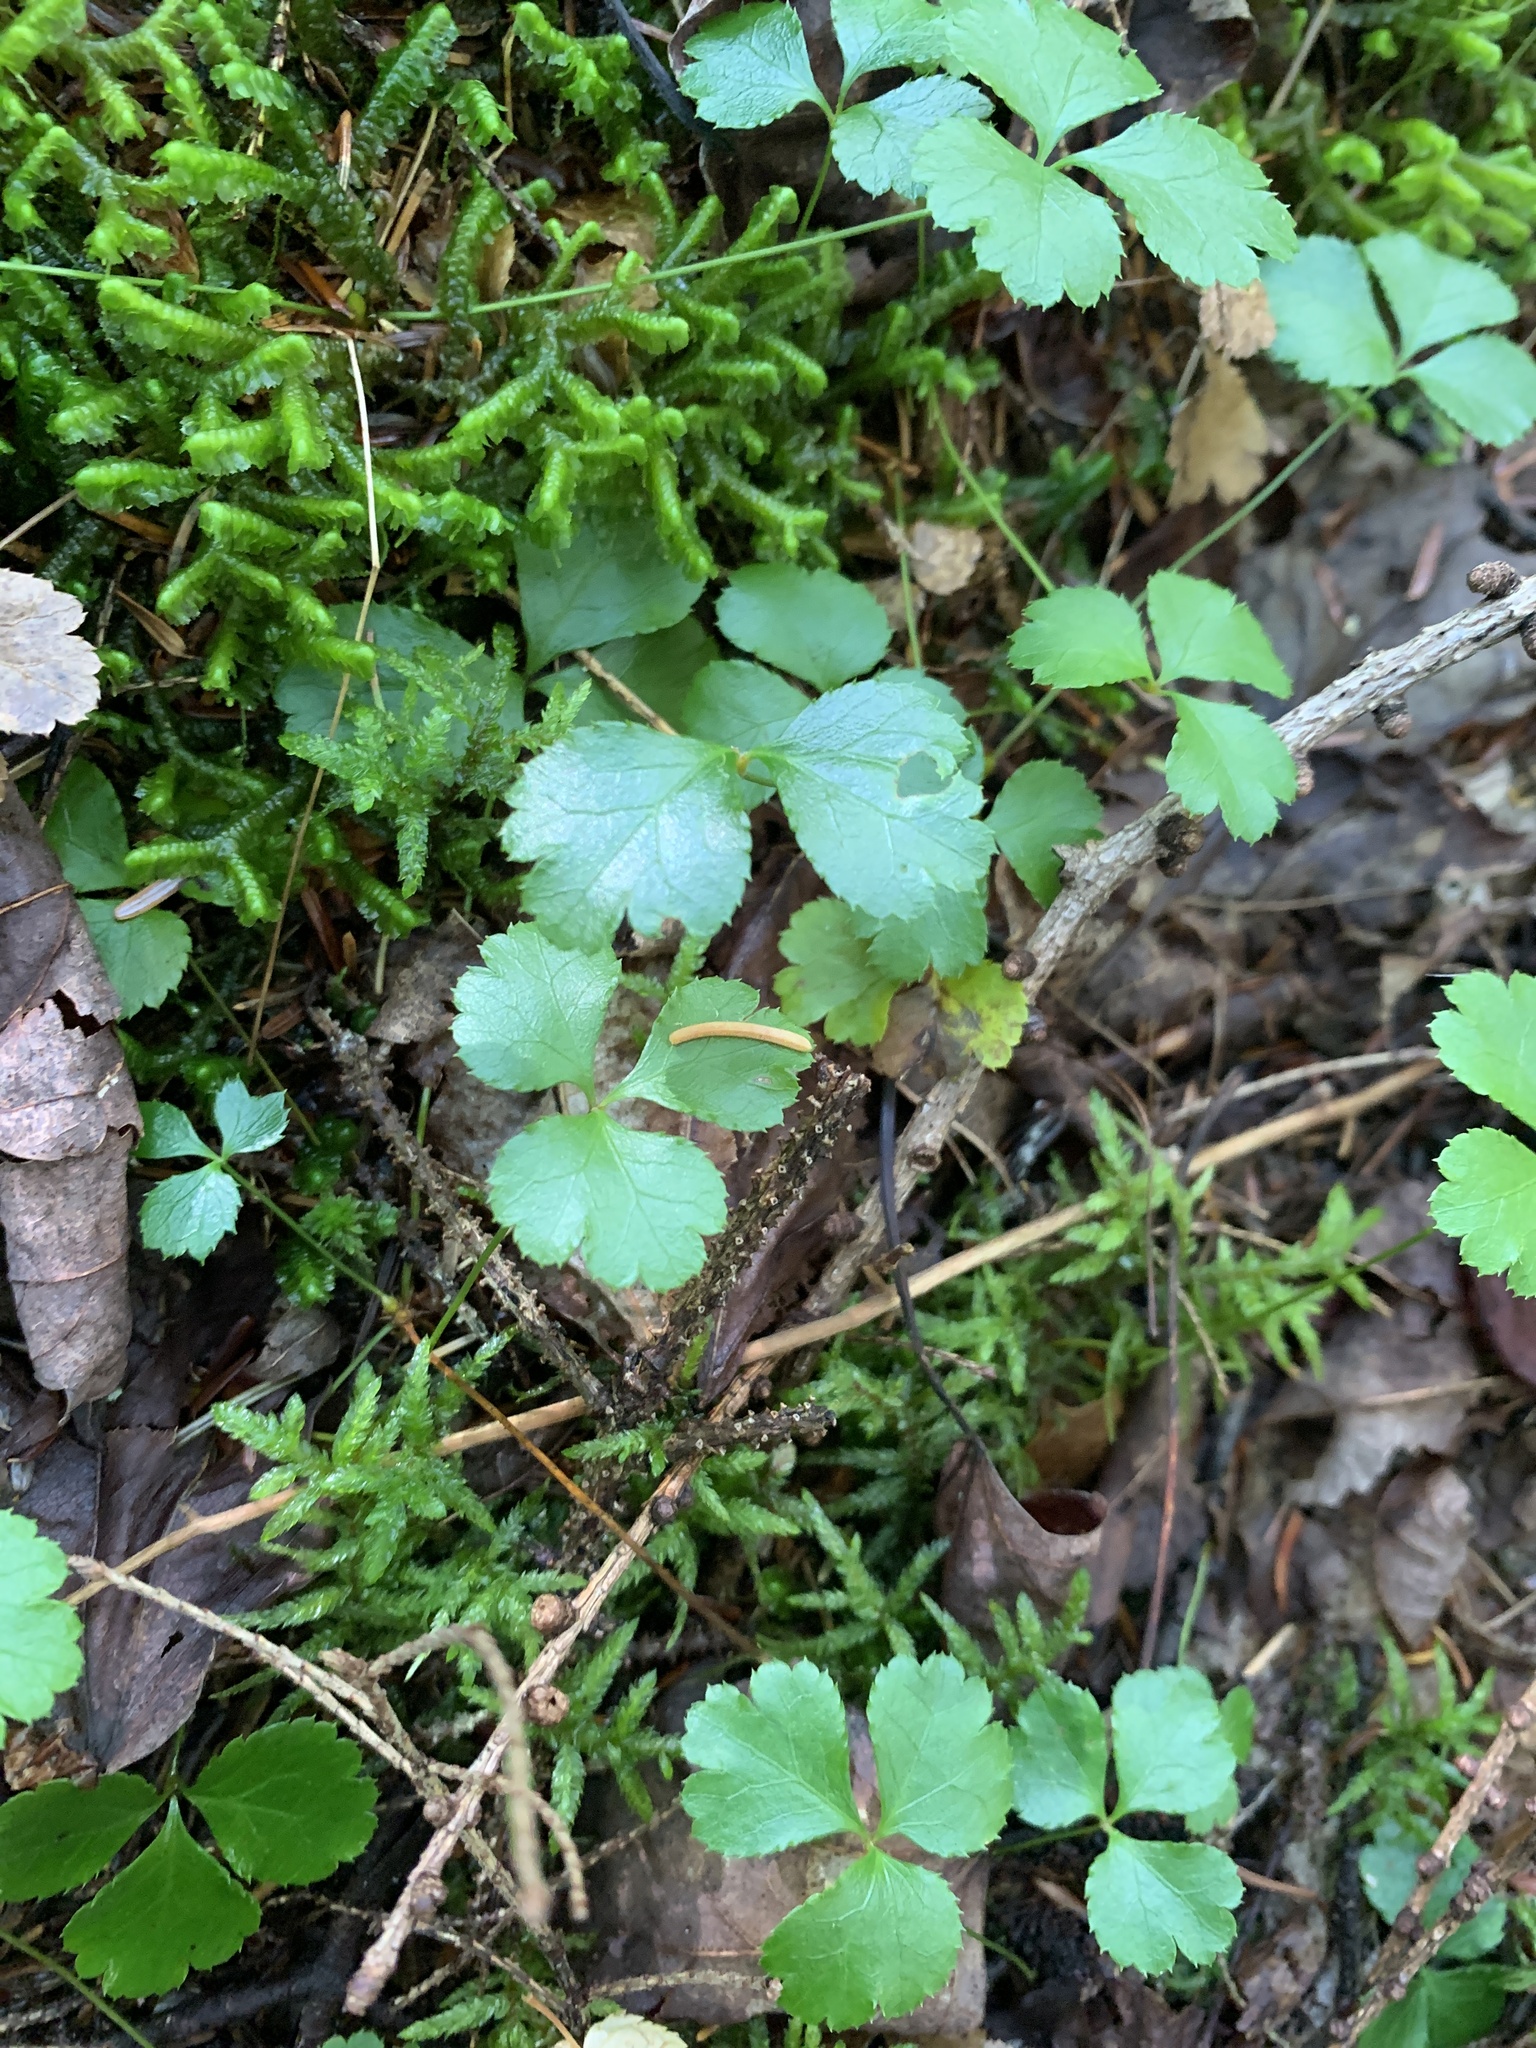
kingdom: Plantae
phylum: Tracheophyta
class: Magnoliopsida
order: Ranunculales
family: Ranunculaceae
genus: Coptis
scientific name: Coptis trifolia
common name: Canker-root
